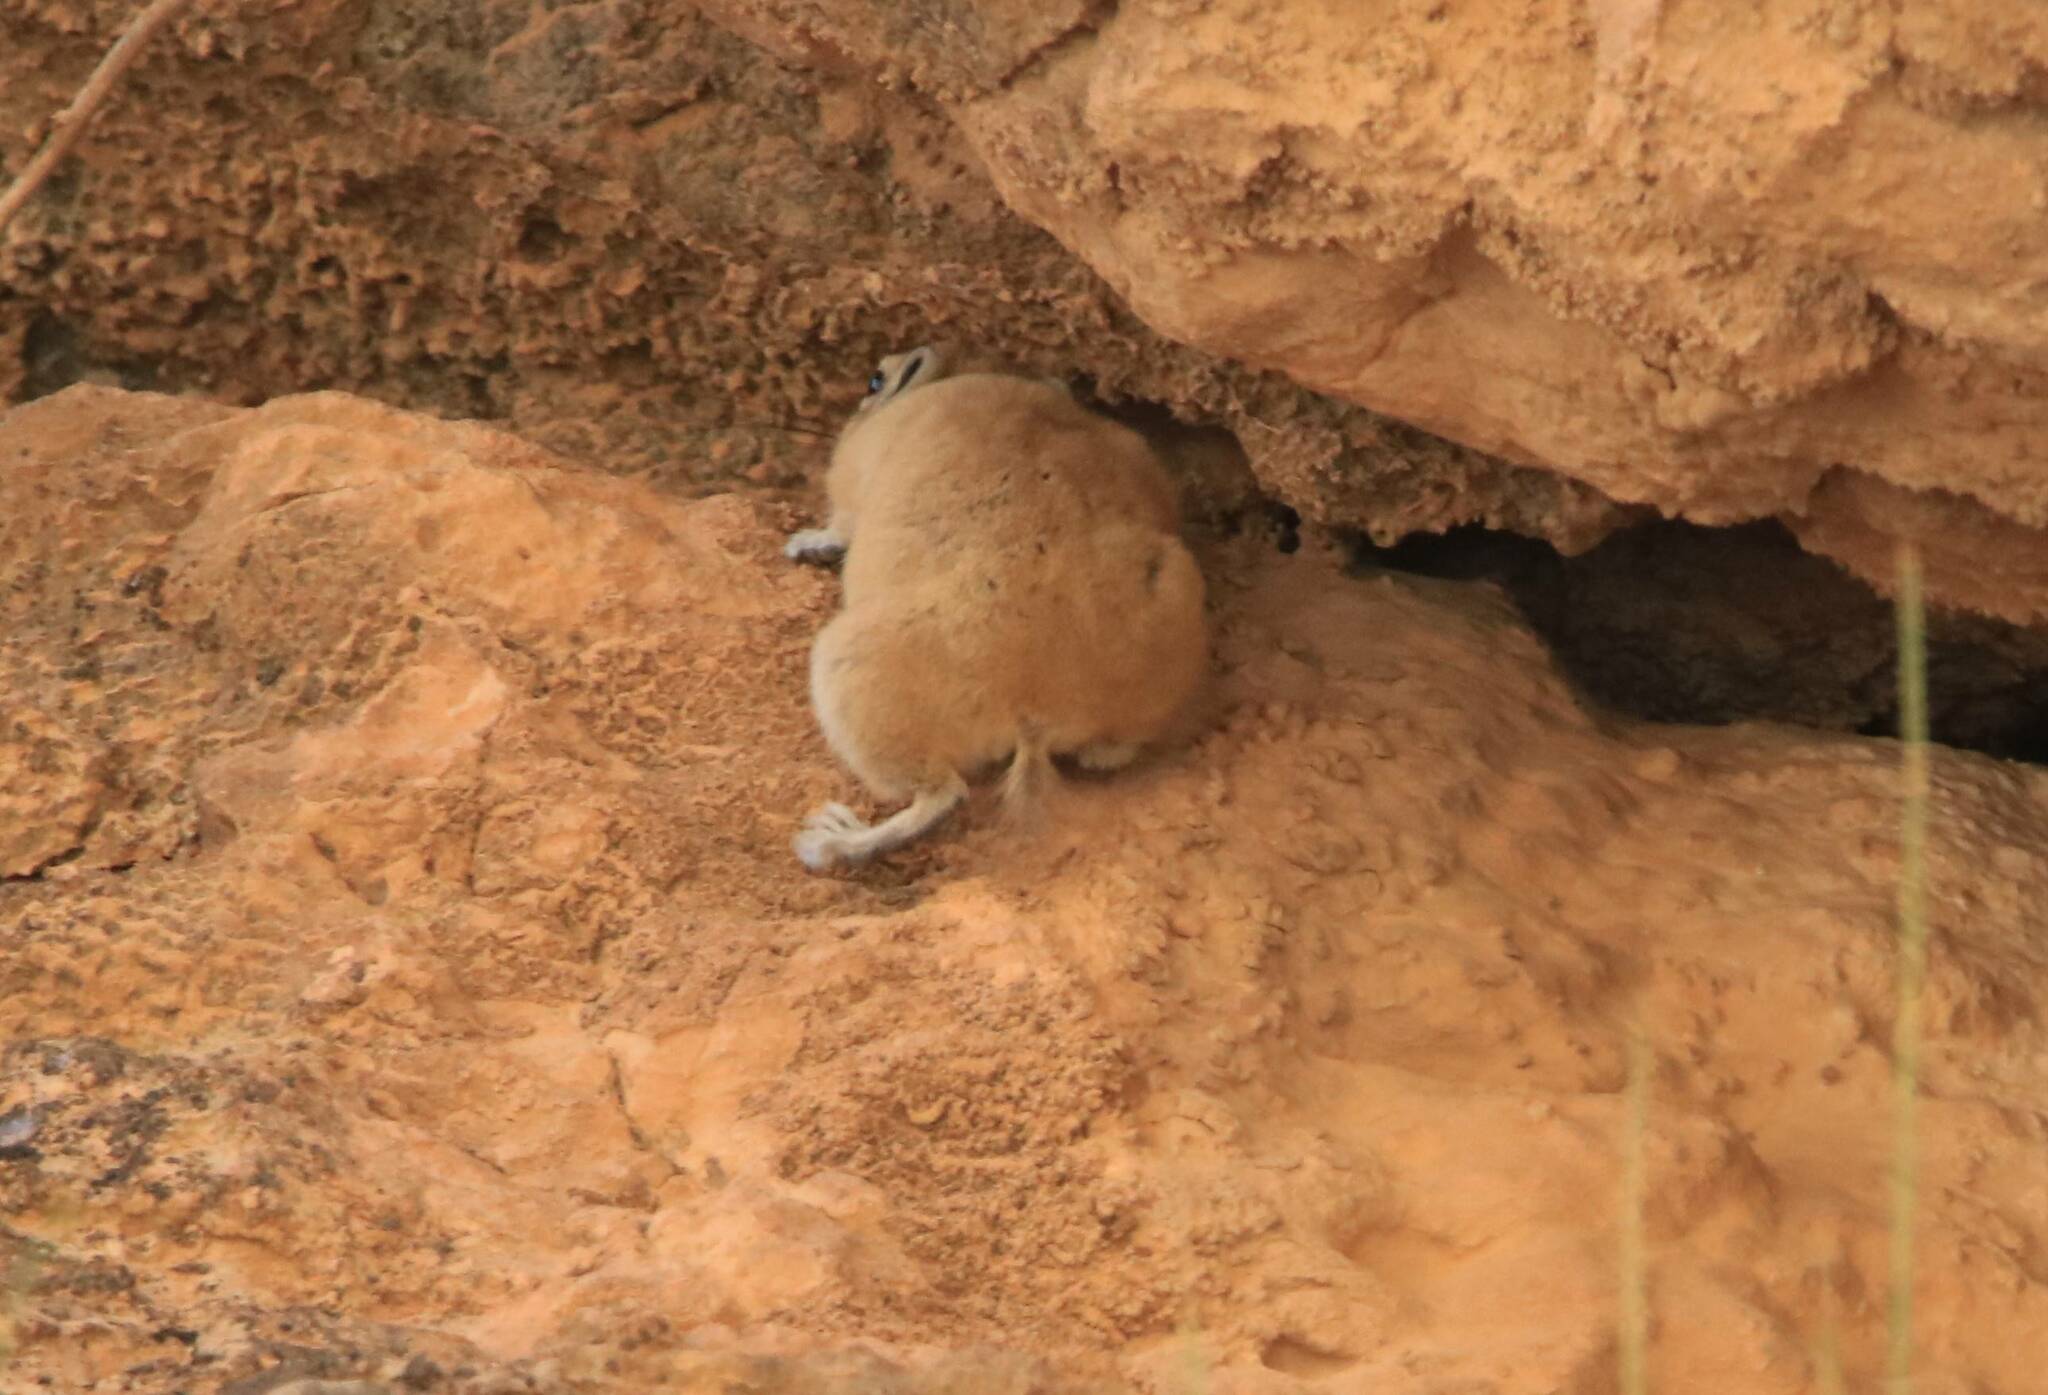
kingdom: Animalia
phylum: Chordata
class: Mammalia
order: Rodentia
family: Ctenodactylidae
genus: Ctenodactylus
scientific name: Ctenodactylus gundi
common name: Common gundi
